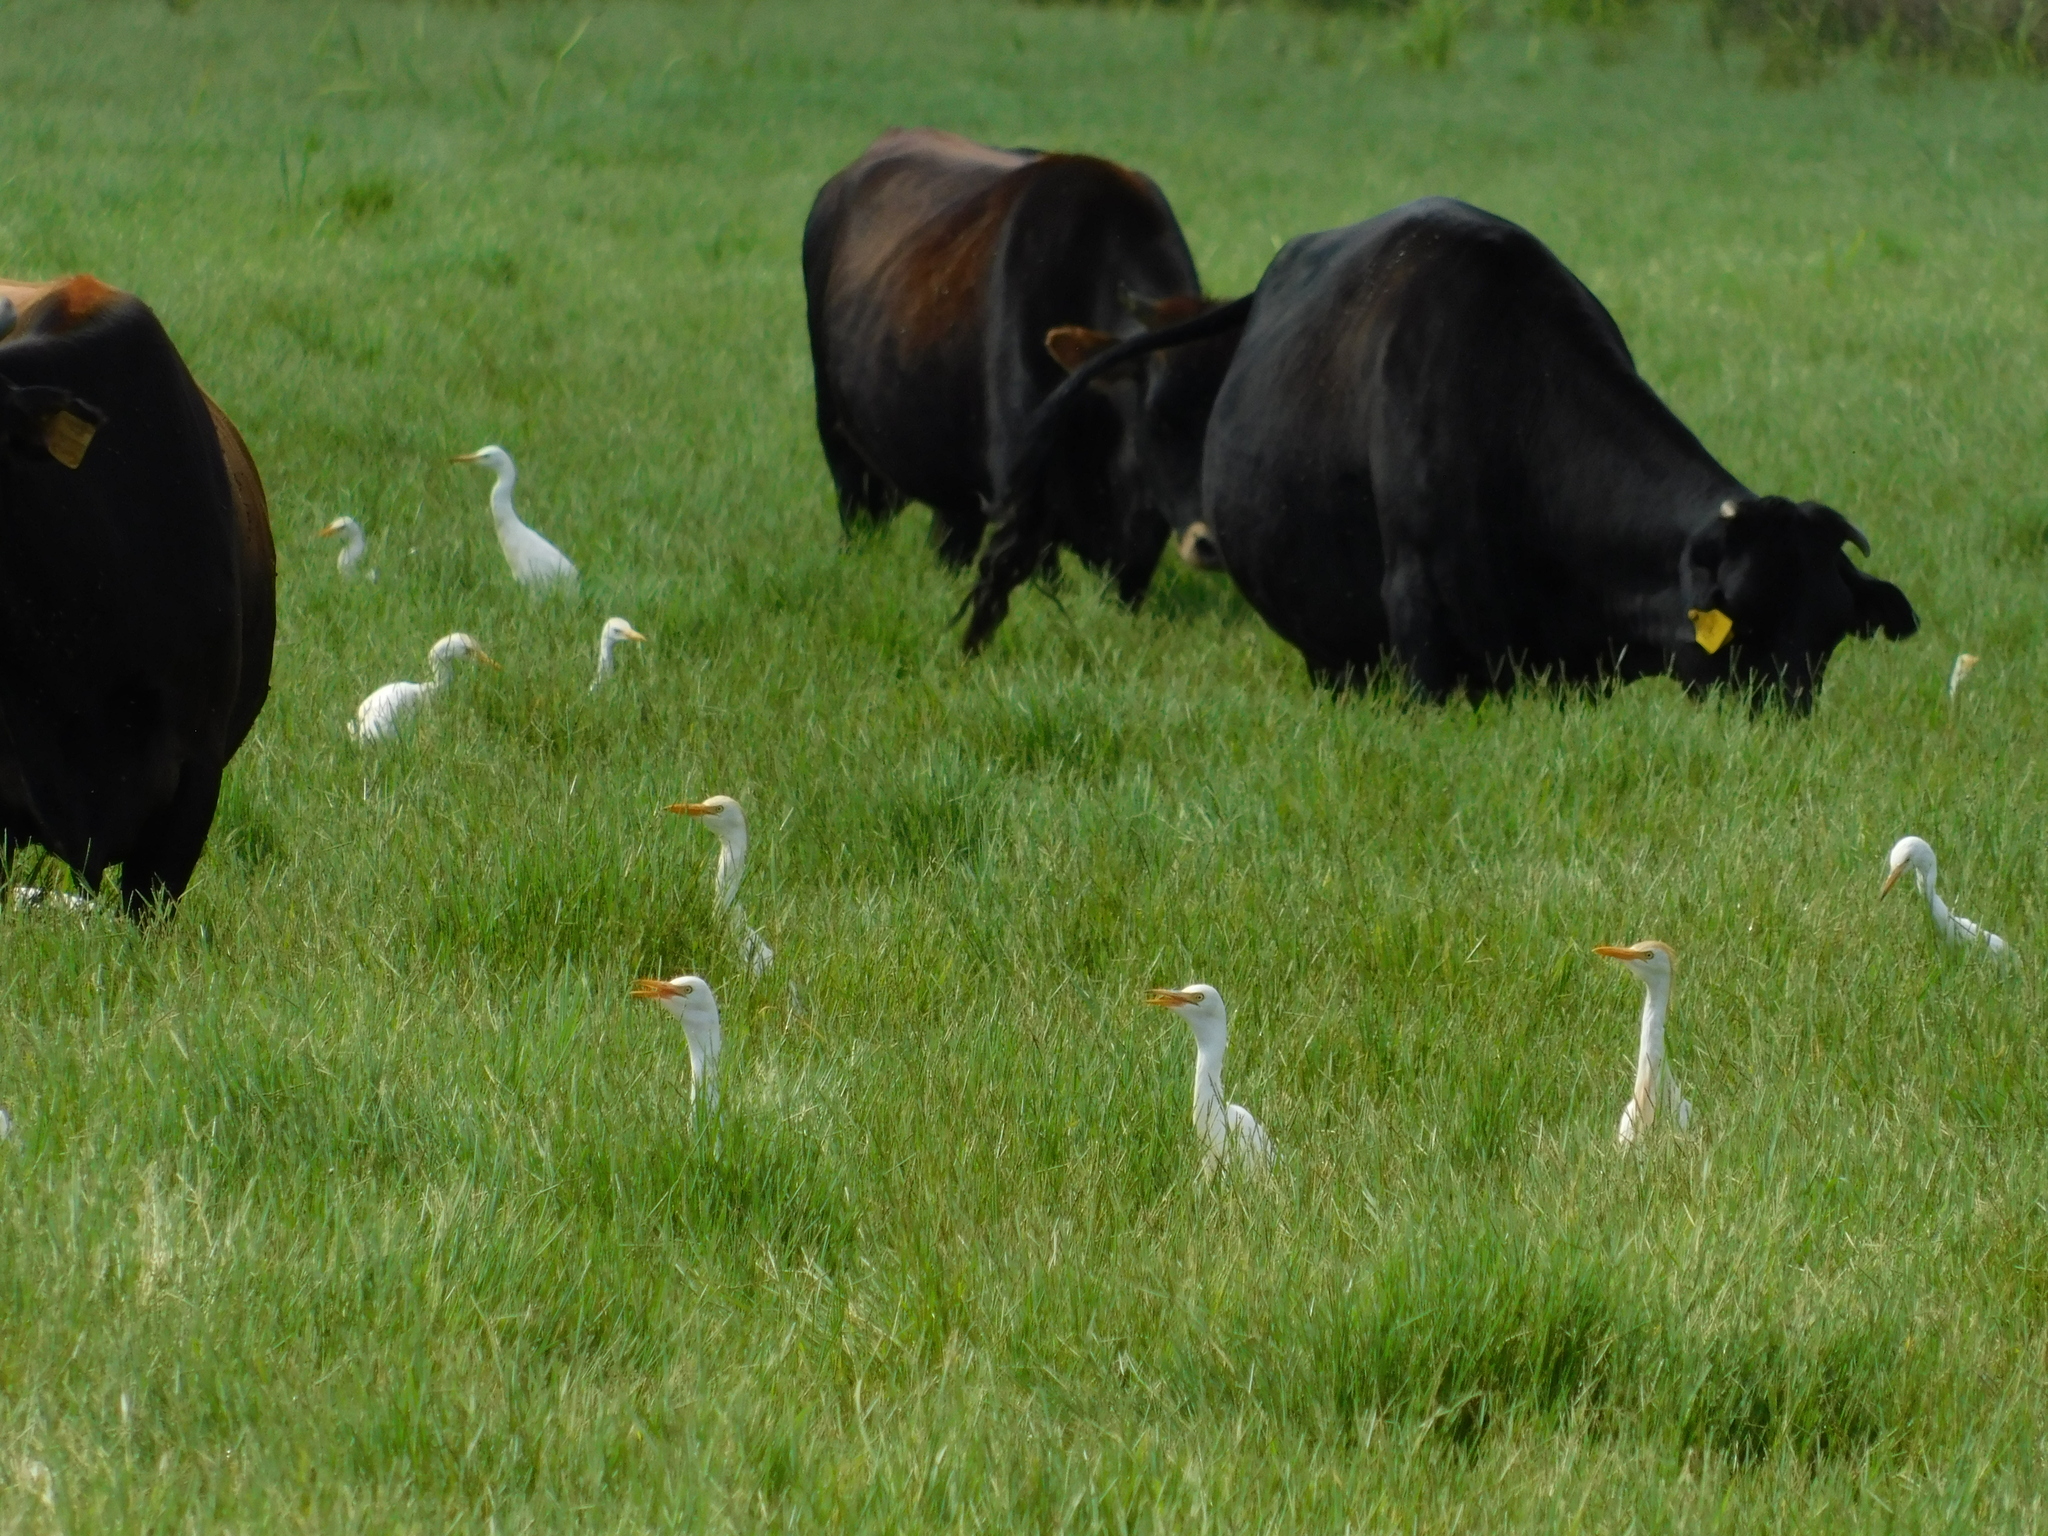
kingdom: Animalia
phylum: Chordata
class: Aves
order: Pelecaniformes
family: Ardeidae
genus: Bubulcus
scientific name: Bubulcus ibis
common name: Cattle egret
